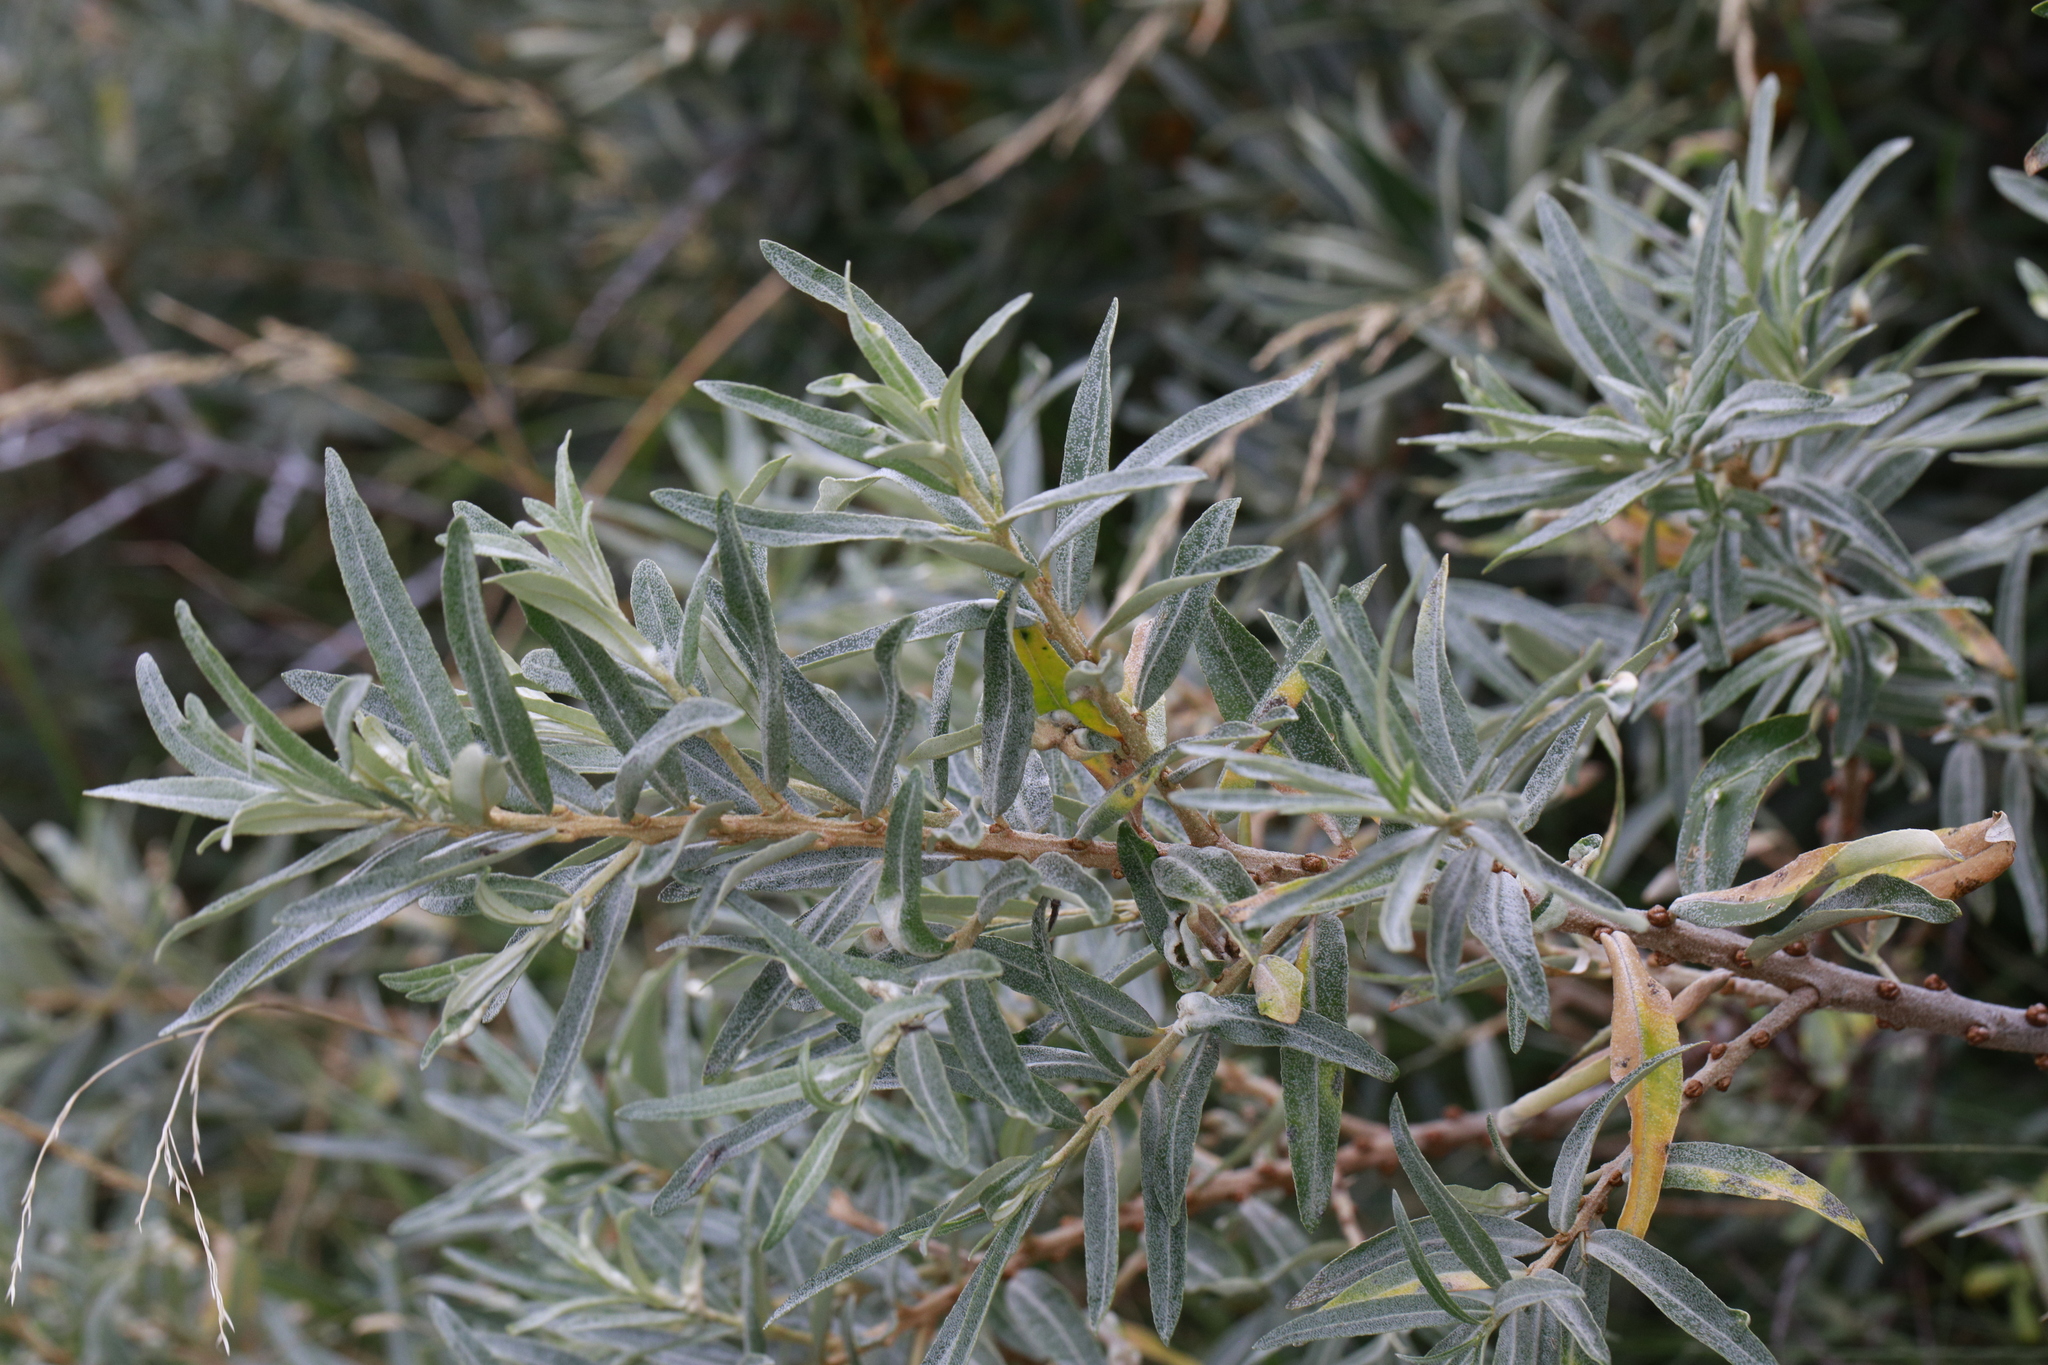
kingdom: Plantae
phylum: Tracheophyta
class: Magnoliopsida
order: Rosales
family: Elaeagnaceae
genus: Hippophae
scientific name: Hippophae rhamnoides
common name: Sea-buckthorn
